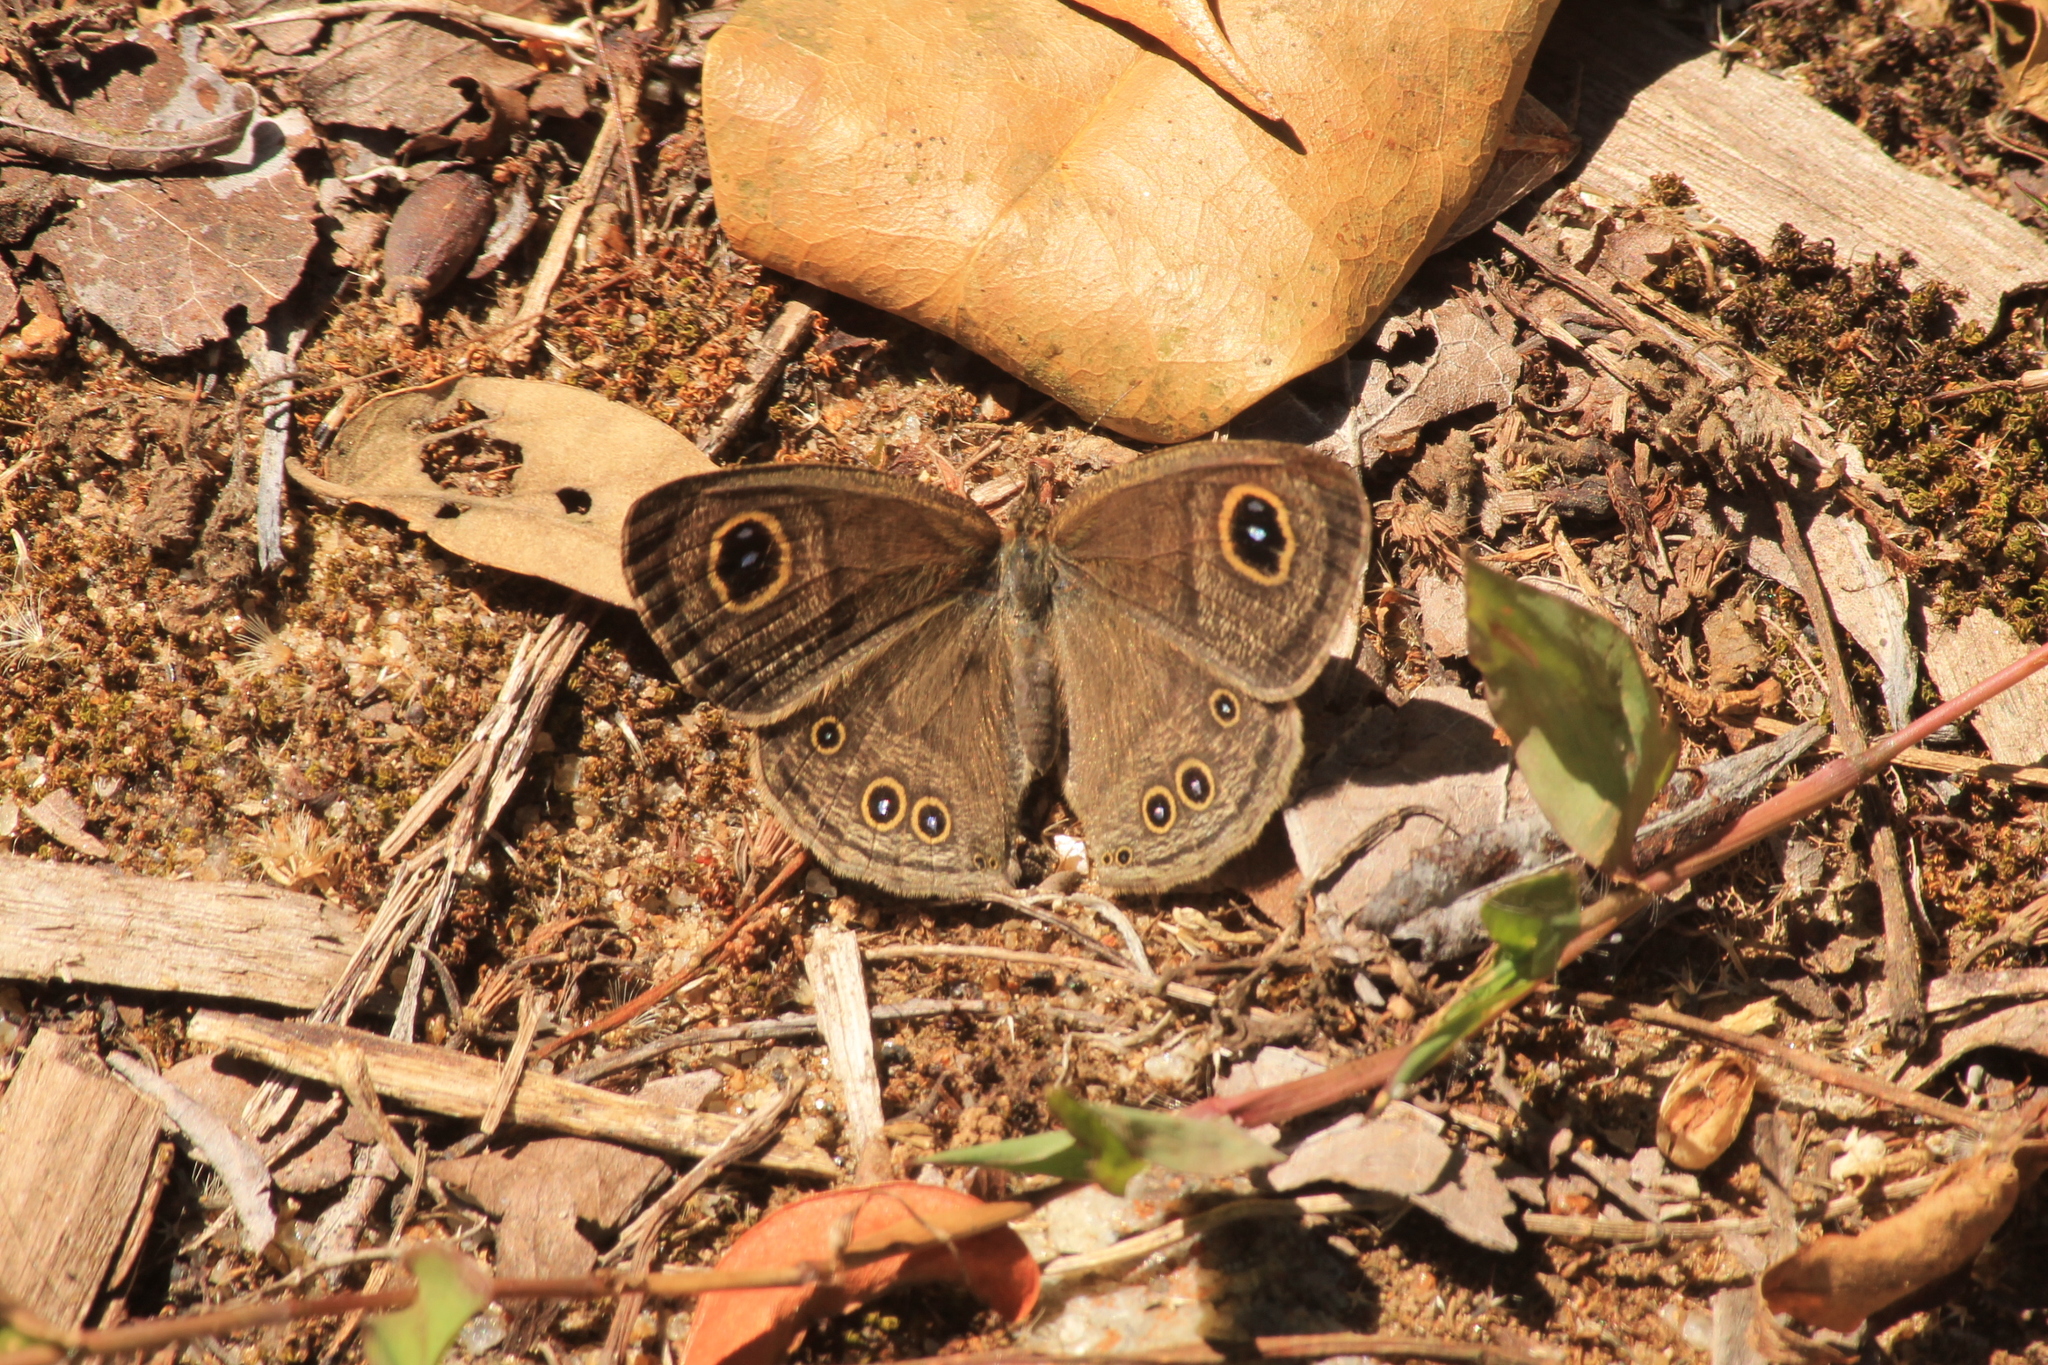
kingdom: Animalia
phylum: Arthropoda
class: Insecta
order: Lepidoptera
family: Nymphalidae
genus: Ypthima
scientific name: Ypthima baldus
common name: Common five-ring
